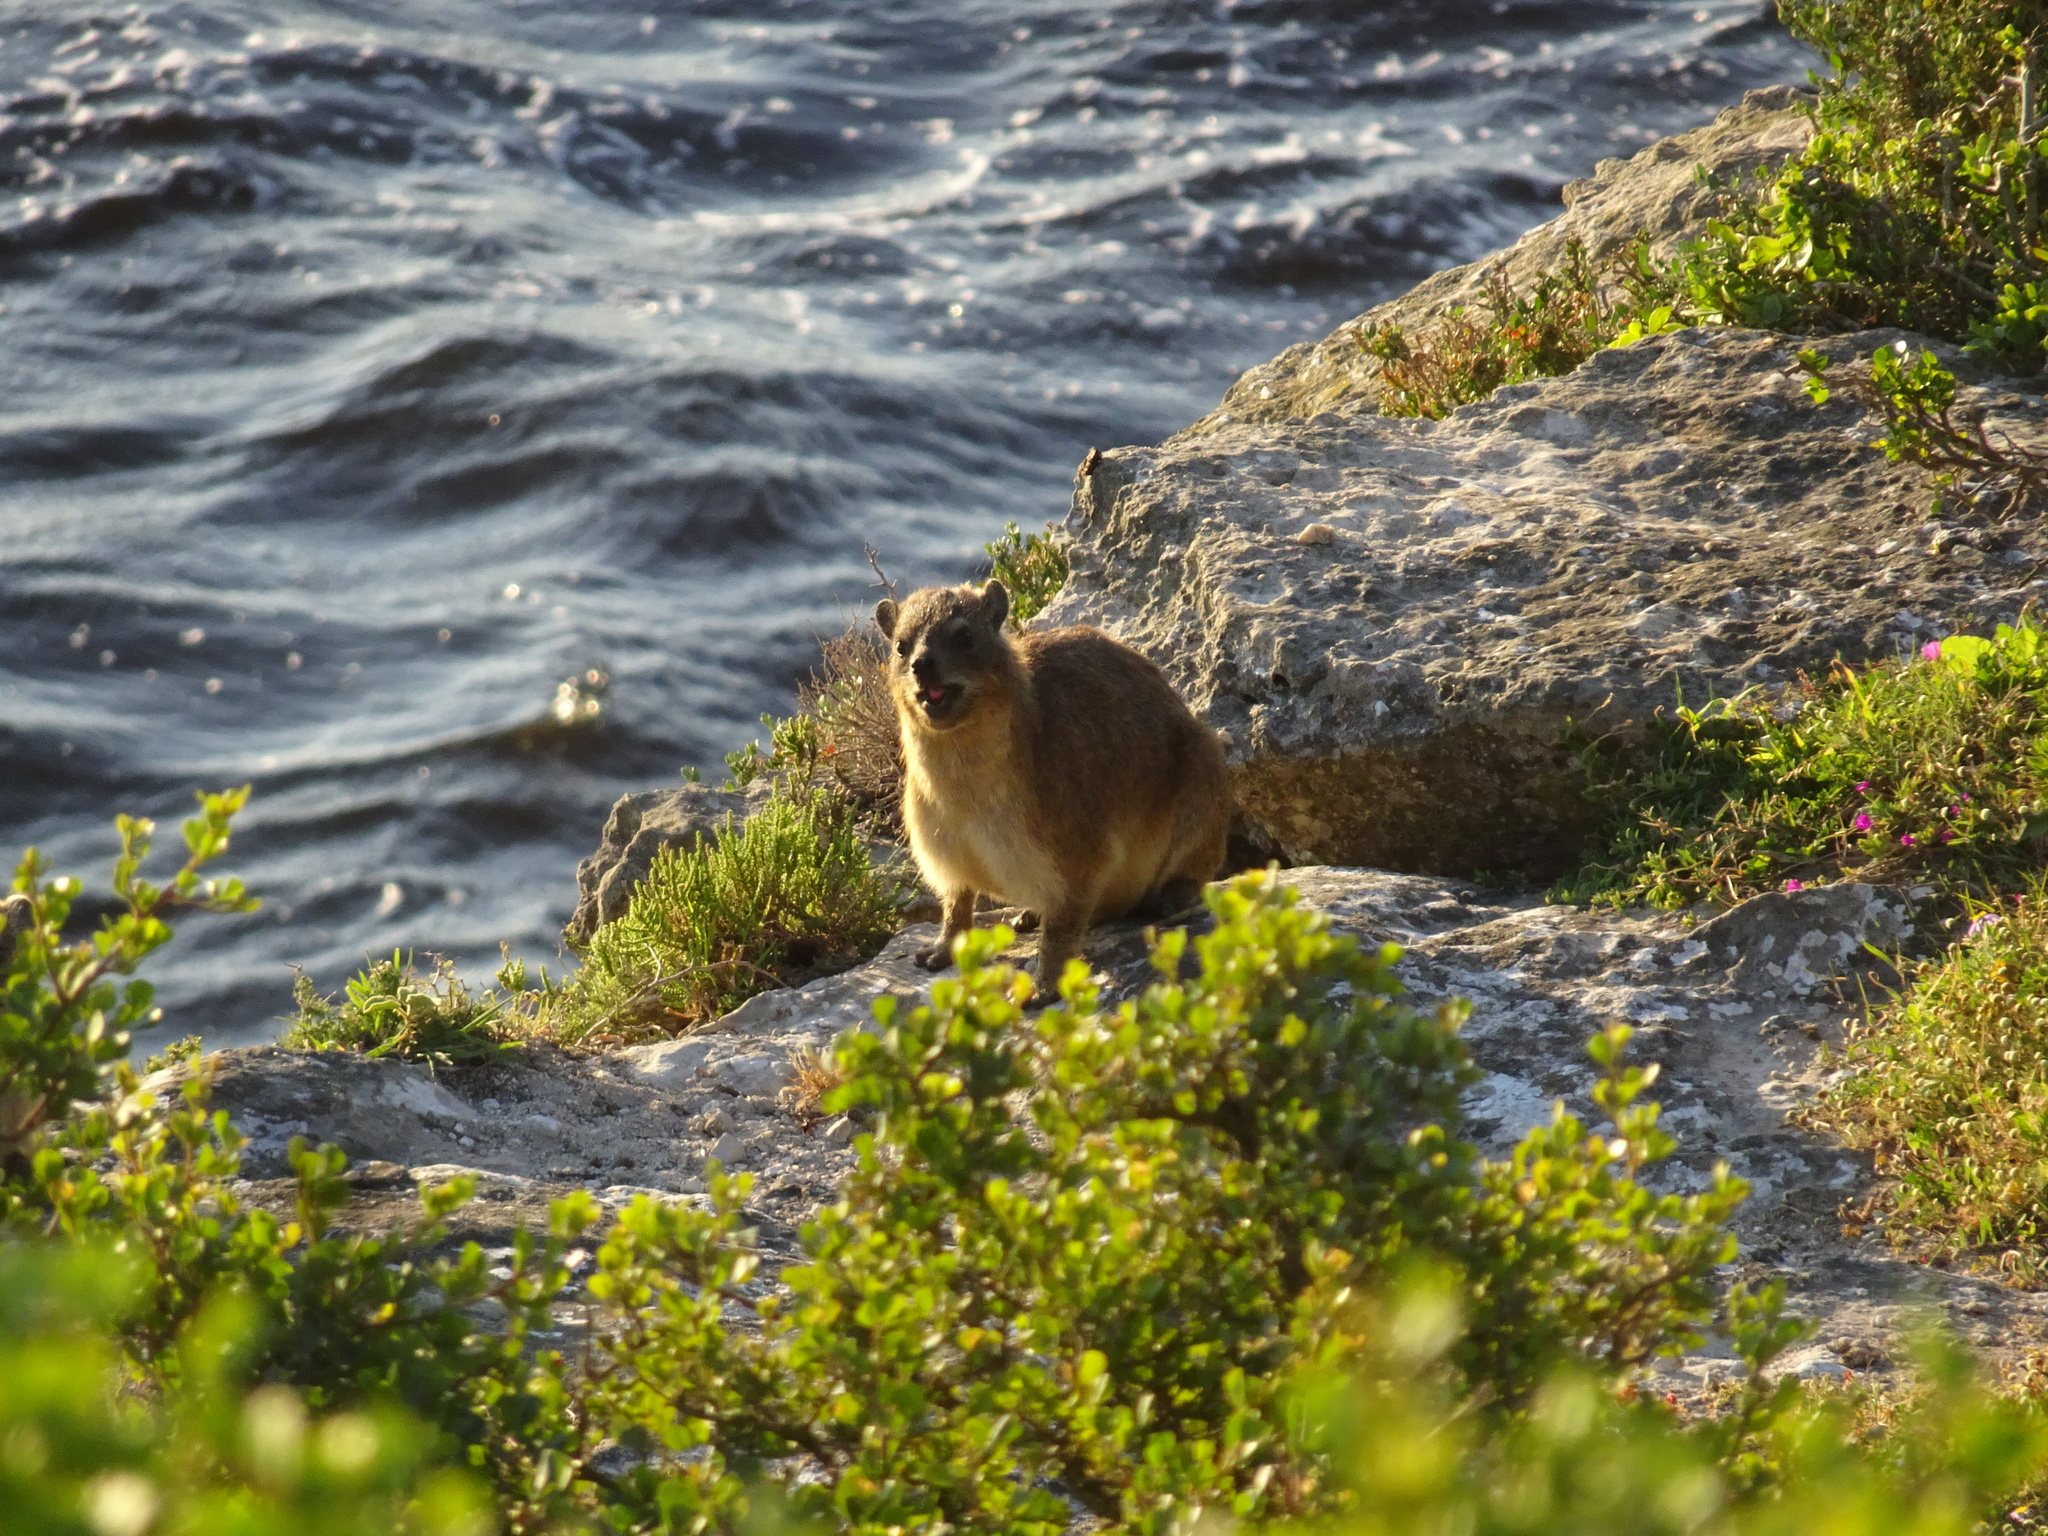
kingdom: Animalia
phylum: Chordata
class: Mammalia
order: Hyracoidea
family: Procaviidae
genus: Procavia
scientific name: Procavia capensis
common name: Rock hyrax
